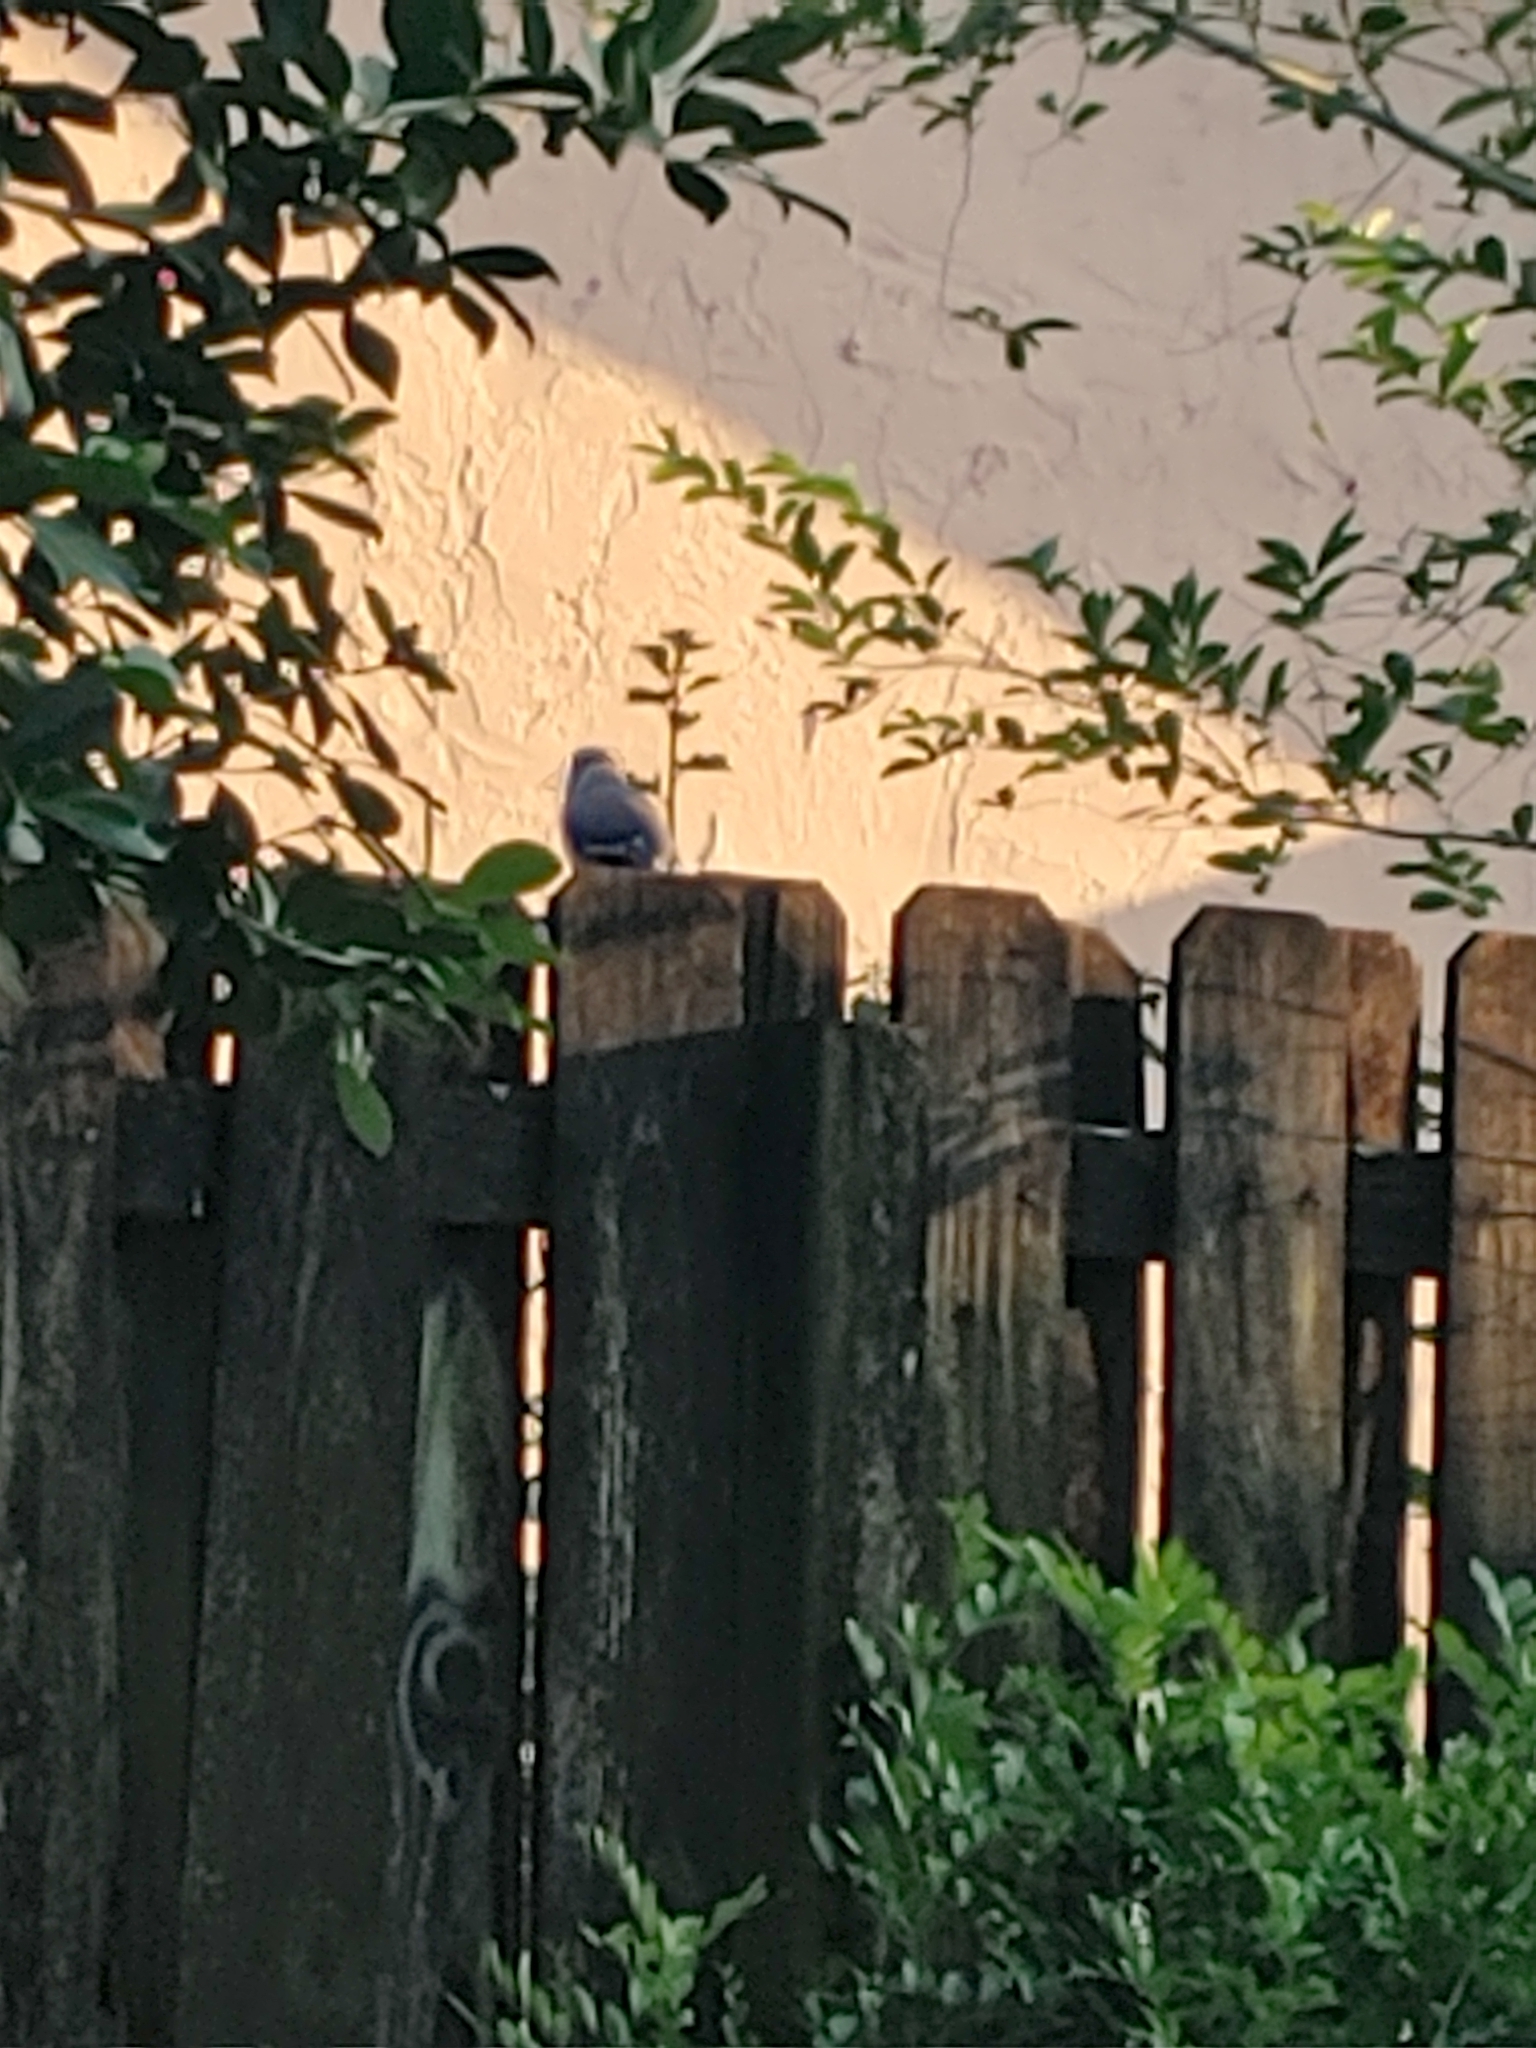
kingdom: Animalia
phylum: Chordata
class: Aves
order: Passeriformes
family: Corvidae
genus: Cyanocitta
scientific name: Cyanocitta cristata
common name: Blue jay
